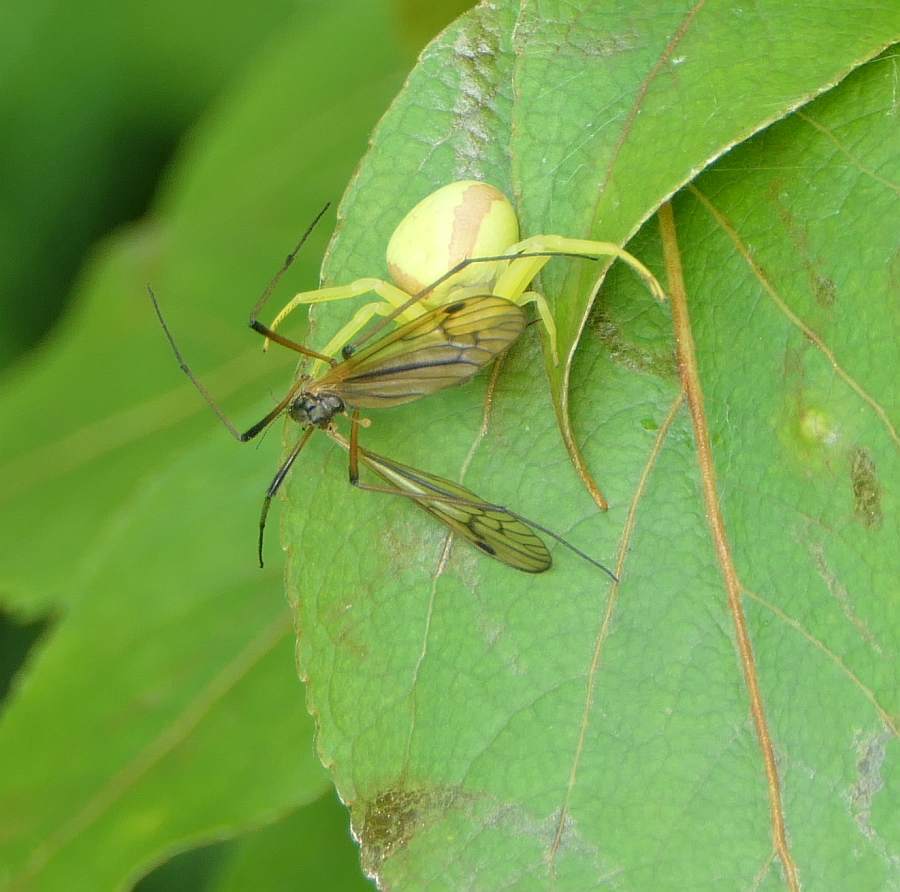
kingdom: Animalia
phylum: Arthropoda
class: Arachnida
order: Araneae
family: Thomisidae
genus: Misumena
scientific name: Misumena vatia
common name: Goldenrod crab spider
